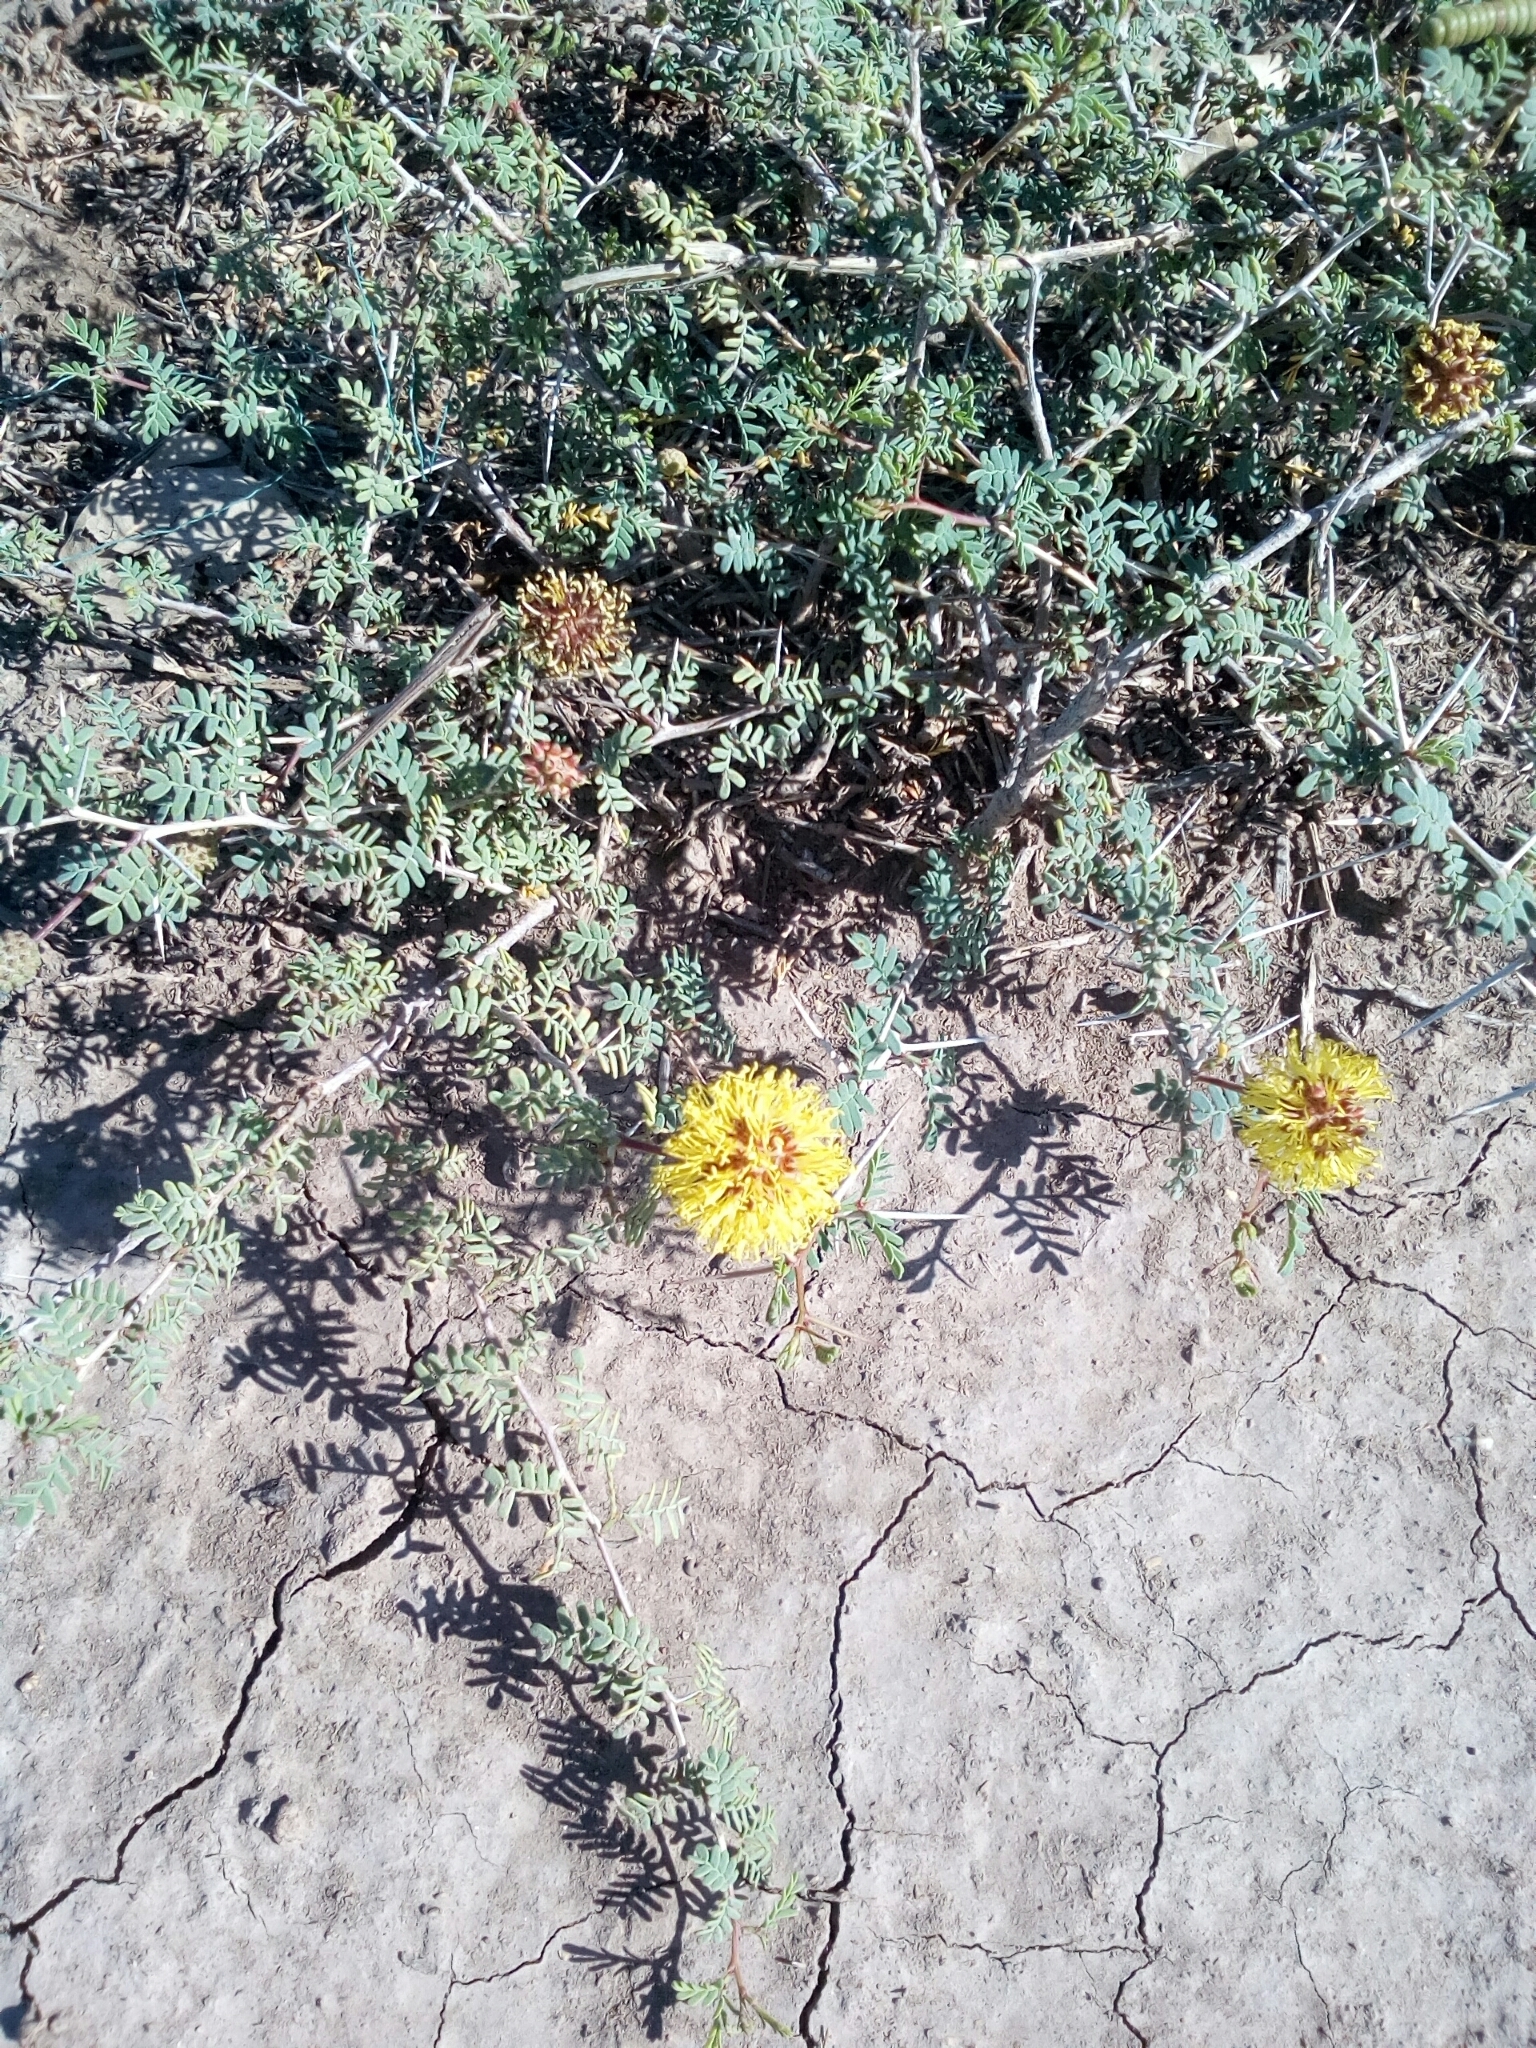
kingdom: Plantae
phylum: Tracheophyta
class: Magnoliopsida
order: Fabales
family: Fabaceae
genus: Prosopis
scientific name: Prosopis strombulifera
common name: Creeping mesquite
